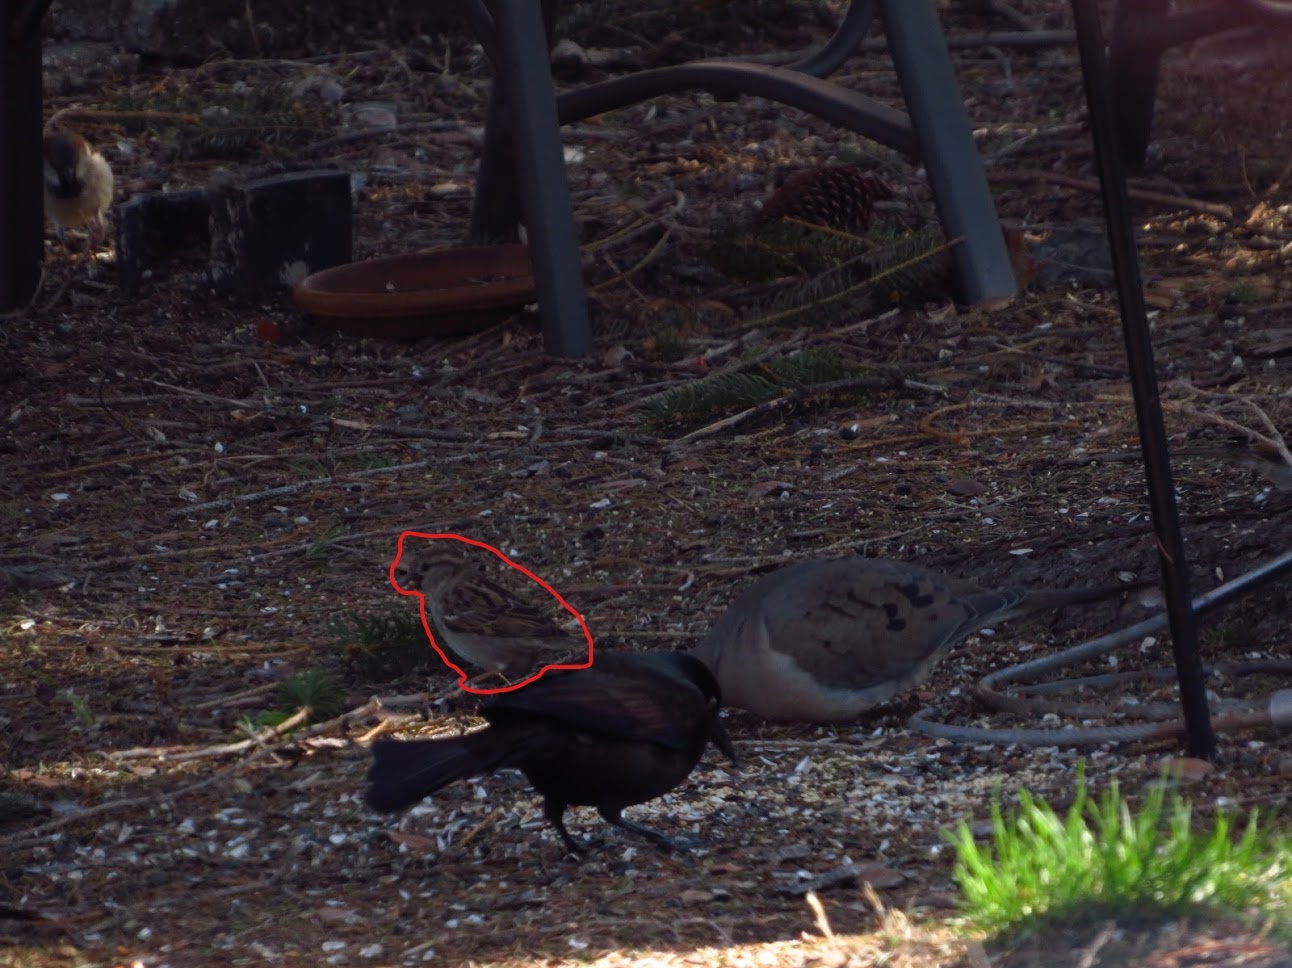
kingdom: Animalia
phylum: Chordata
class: Aves
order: Passeriformes
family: Passeridae
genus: Passer
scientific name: Passer domesticus
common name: House sparrow
